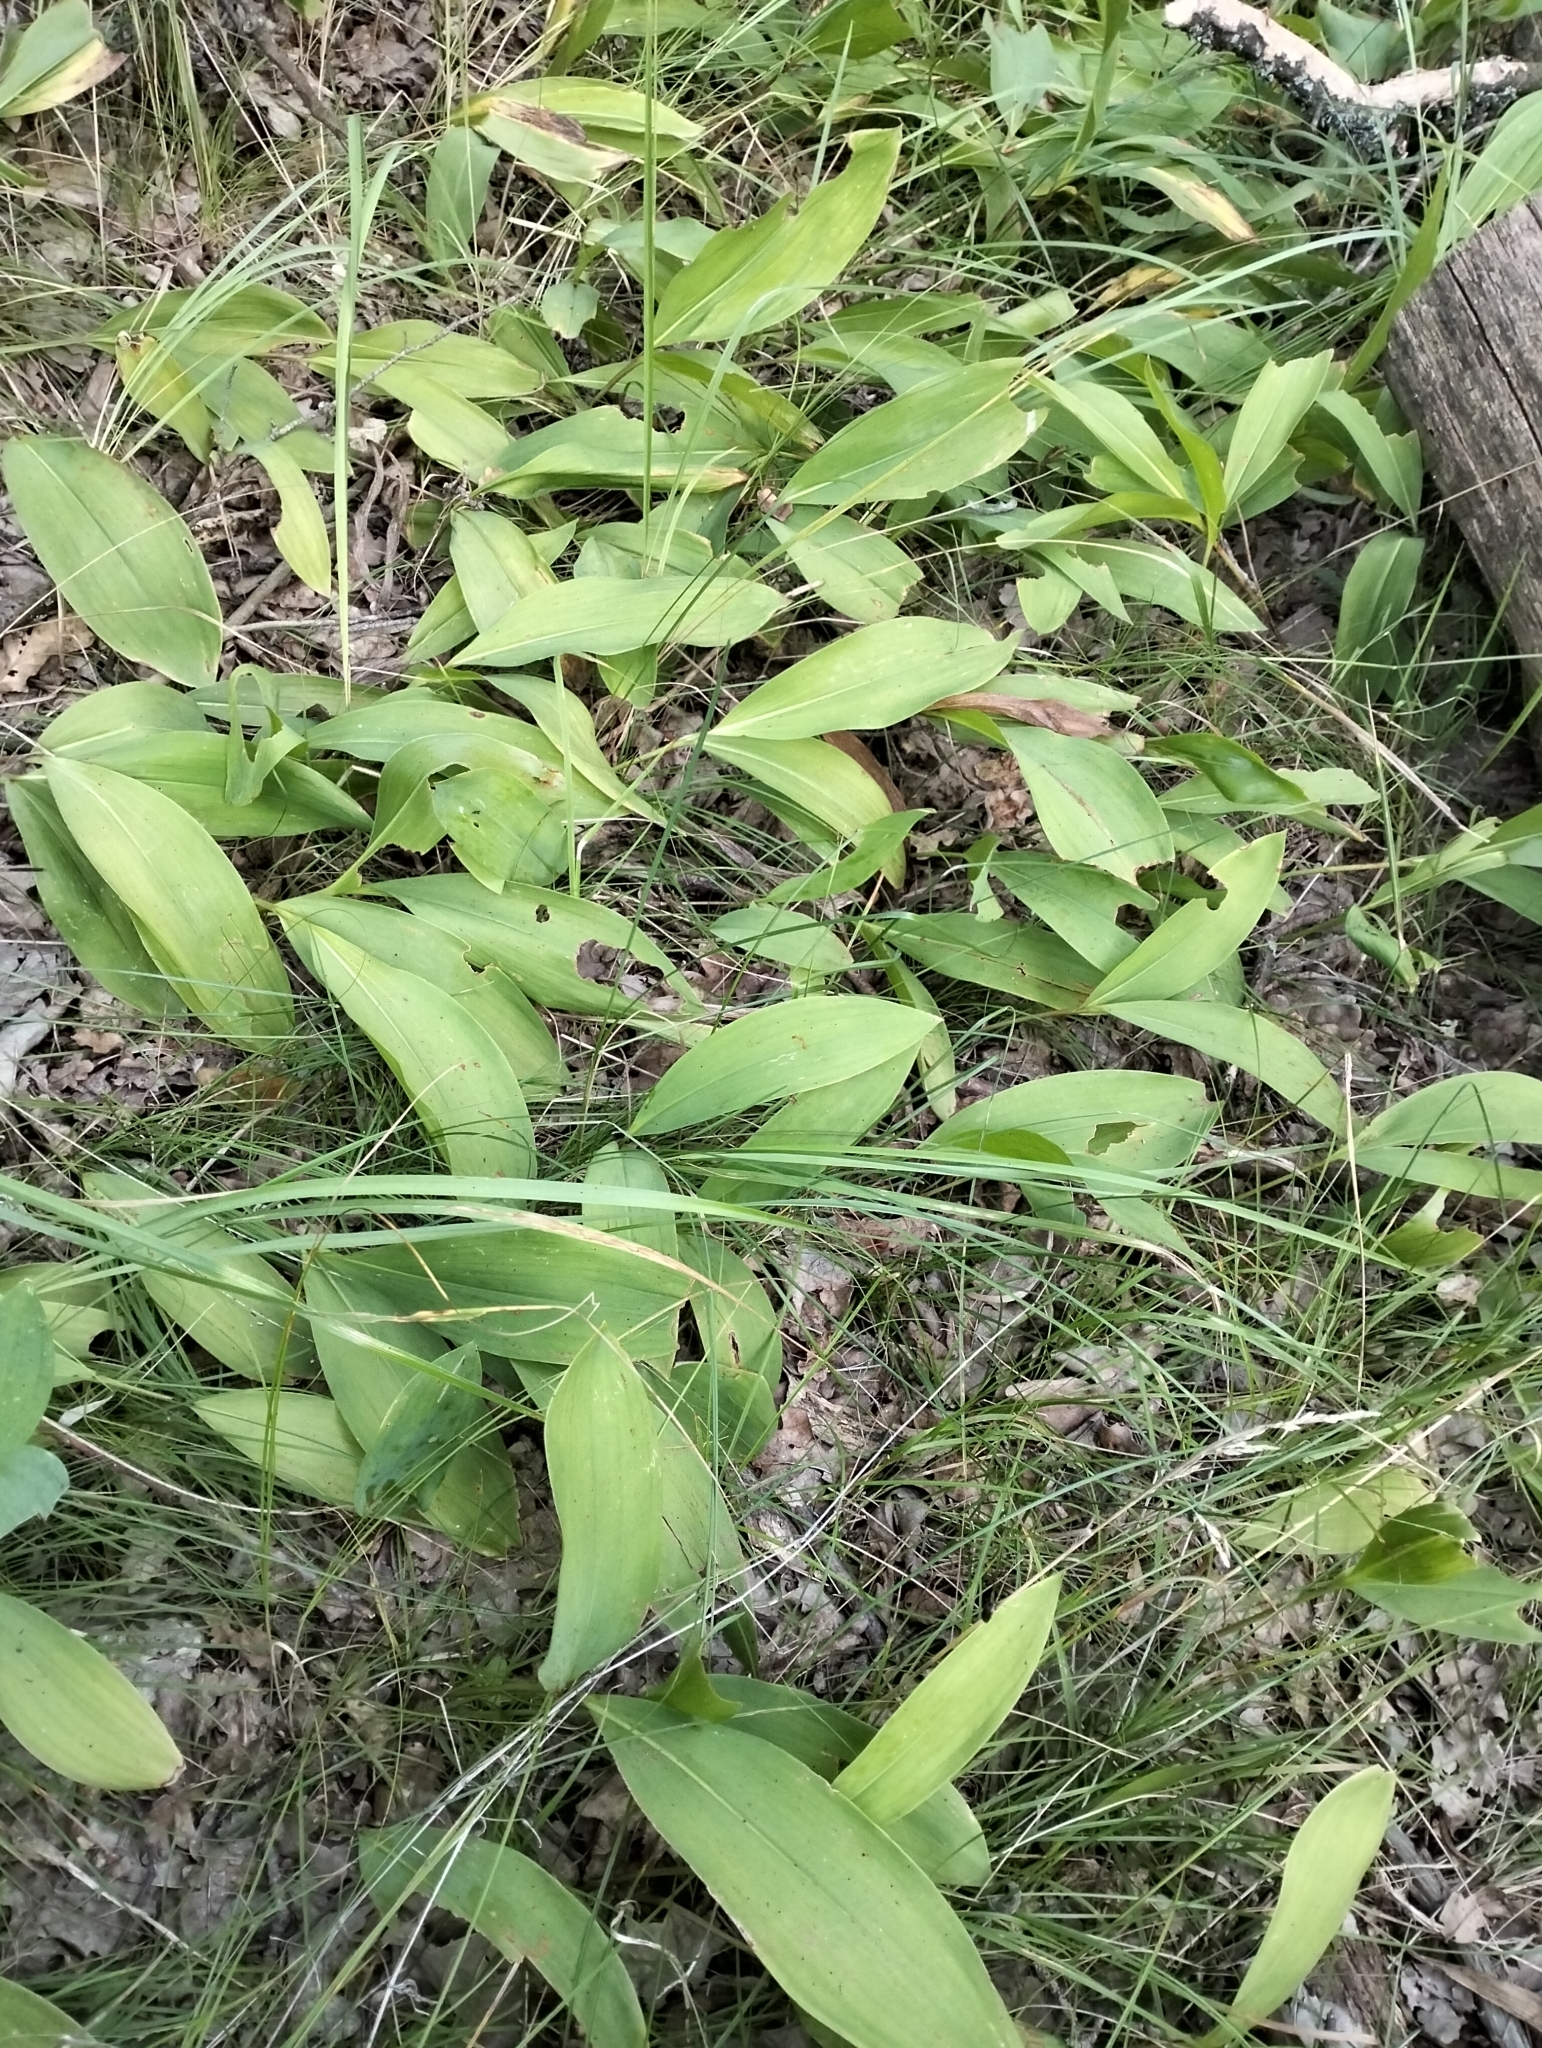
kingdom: Plantae
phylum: Tracheophyta
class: Liliopsida
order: Asparagales
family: Asparagaceae
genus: Convallaria
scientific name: Convallaria majalis
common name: Lily-of-the-valley
